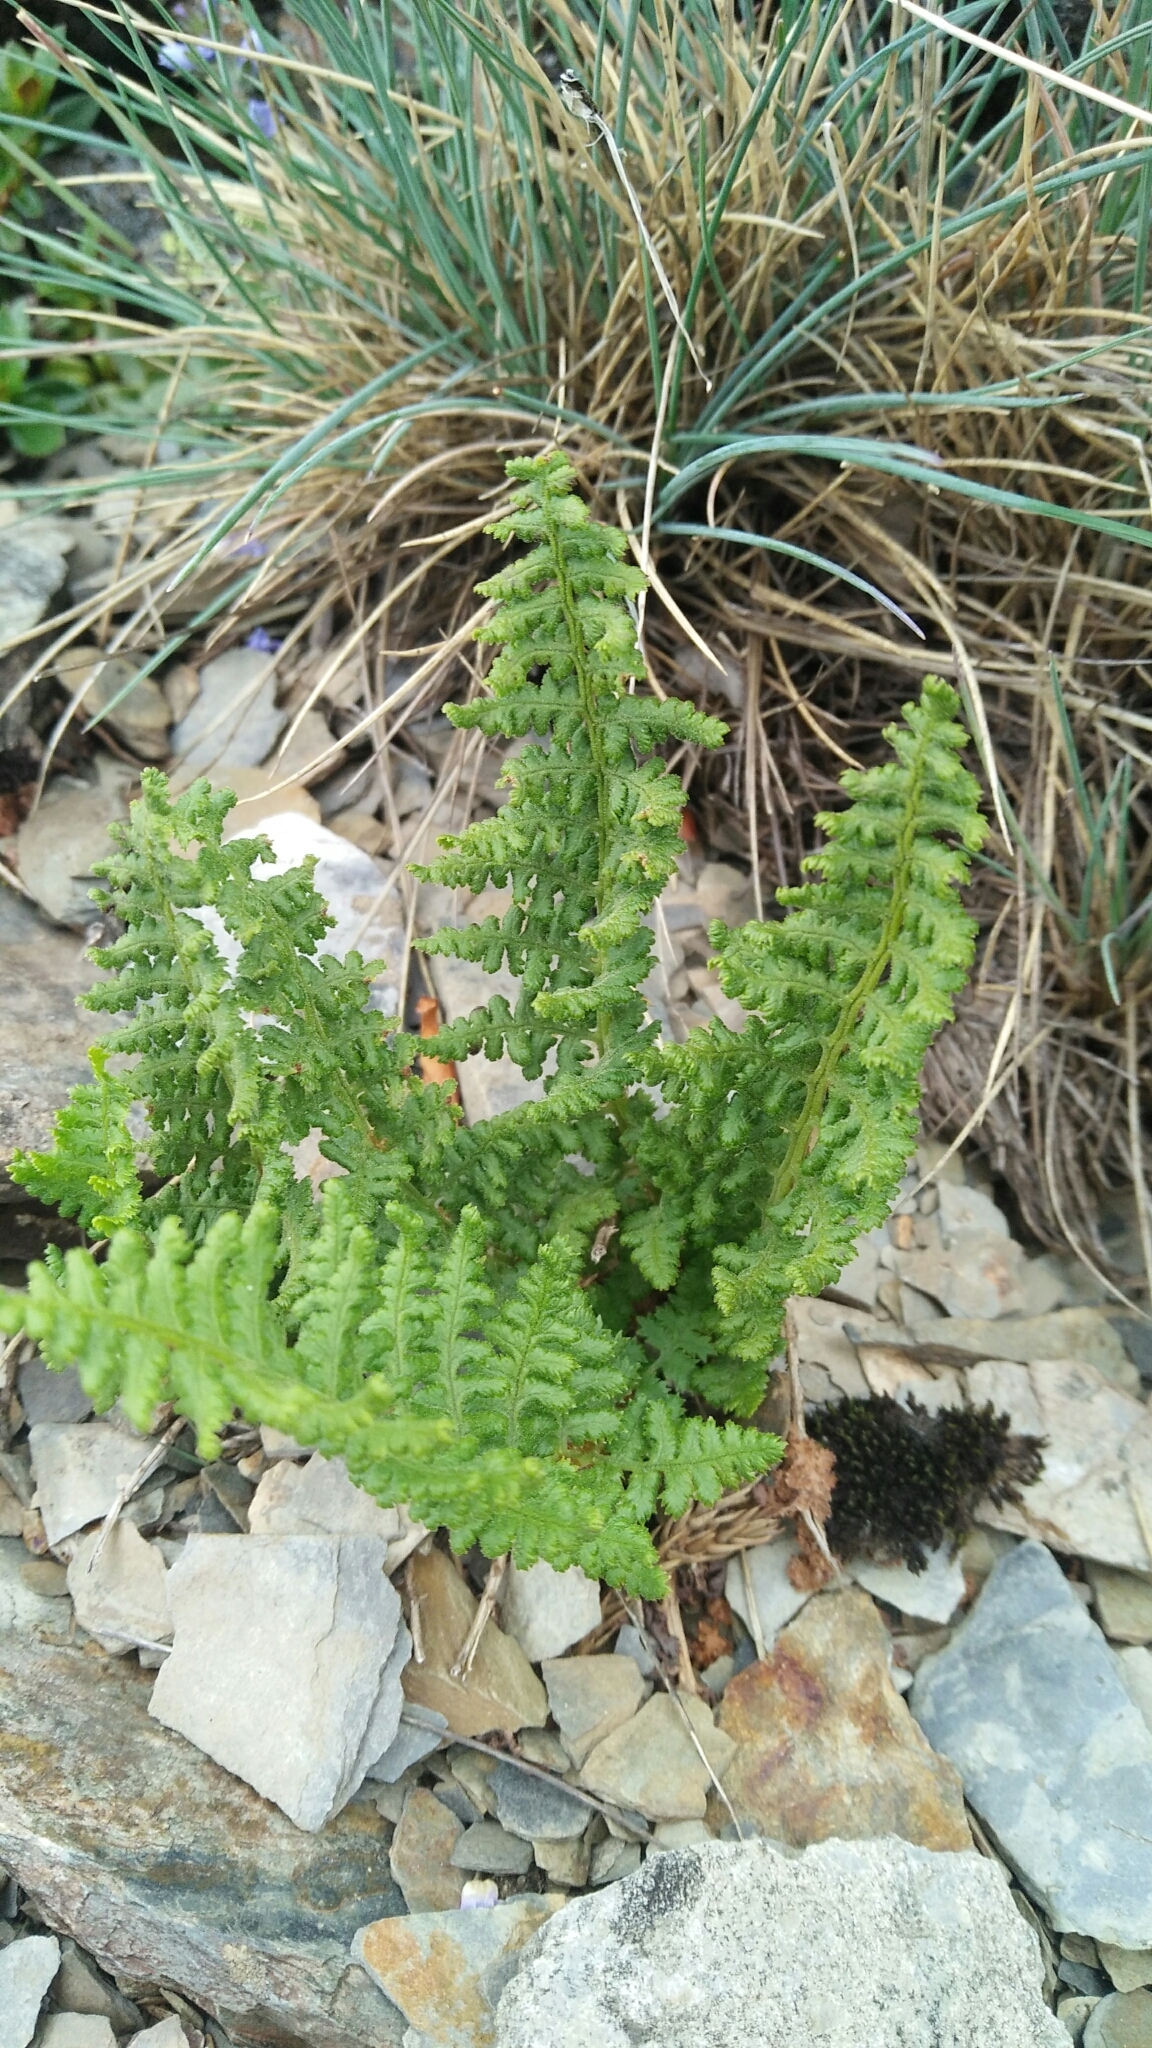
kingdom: Plantae
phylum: Tracheophyta
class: Polypodiopsida
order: Polypodiales
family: Dryopteridaceae
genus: Dryopteris
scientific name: Dryopteris alpestris
